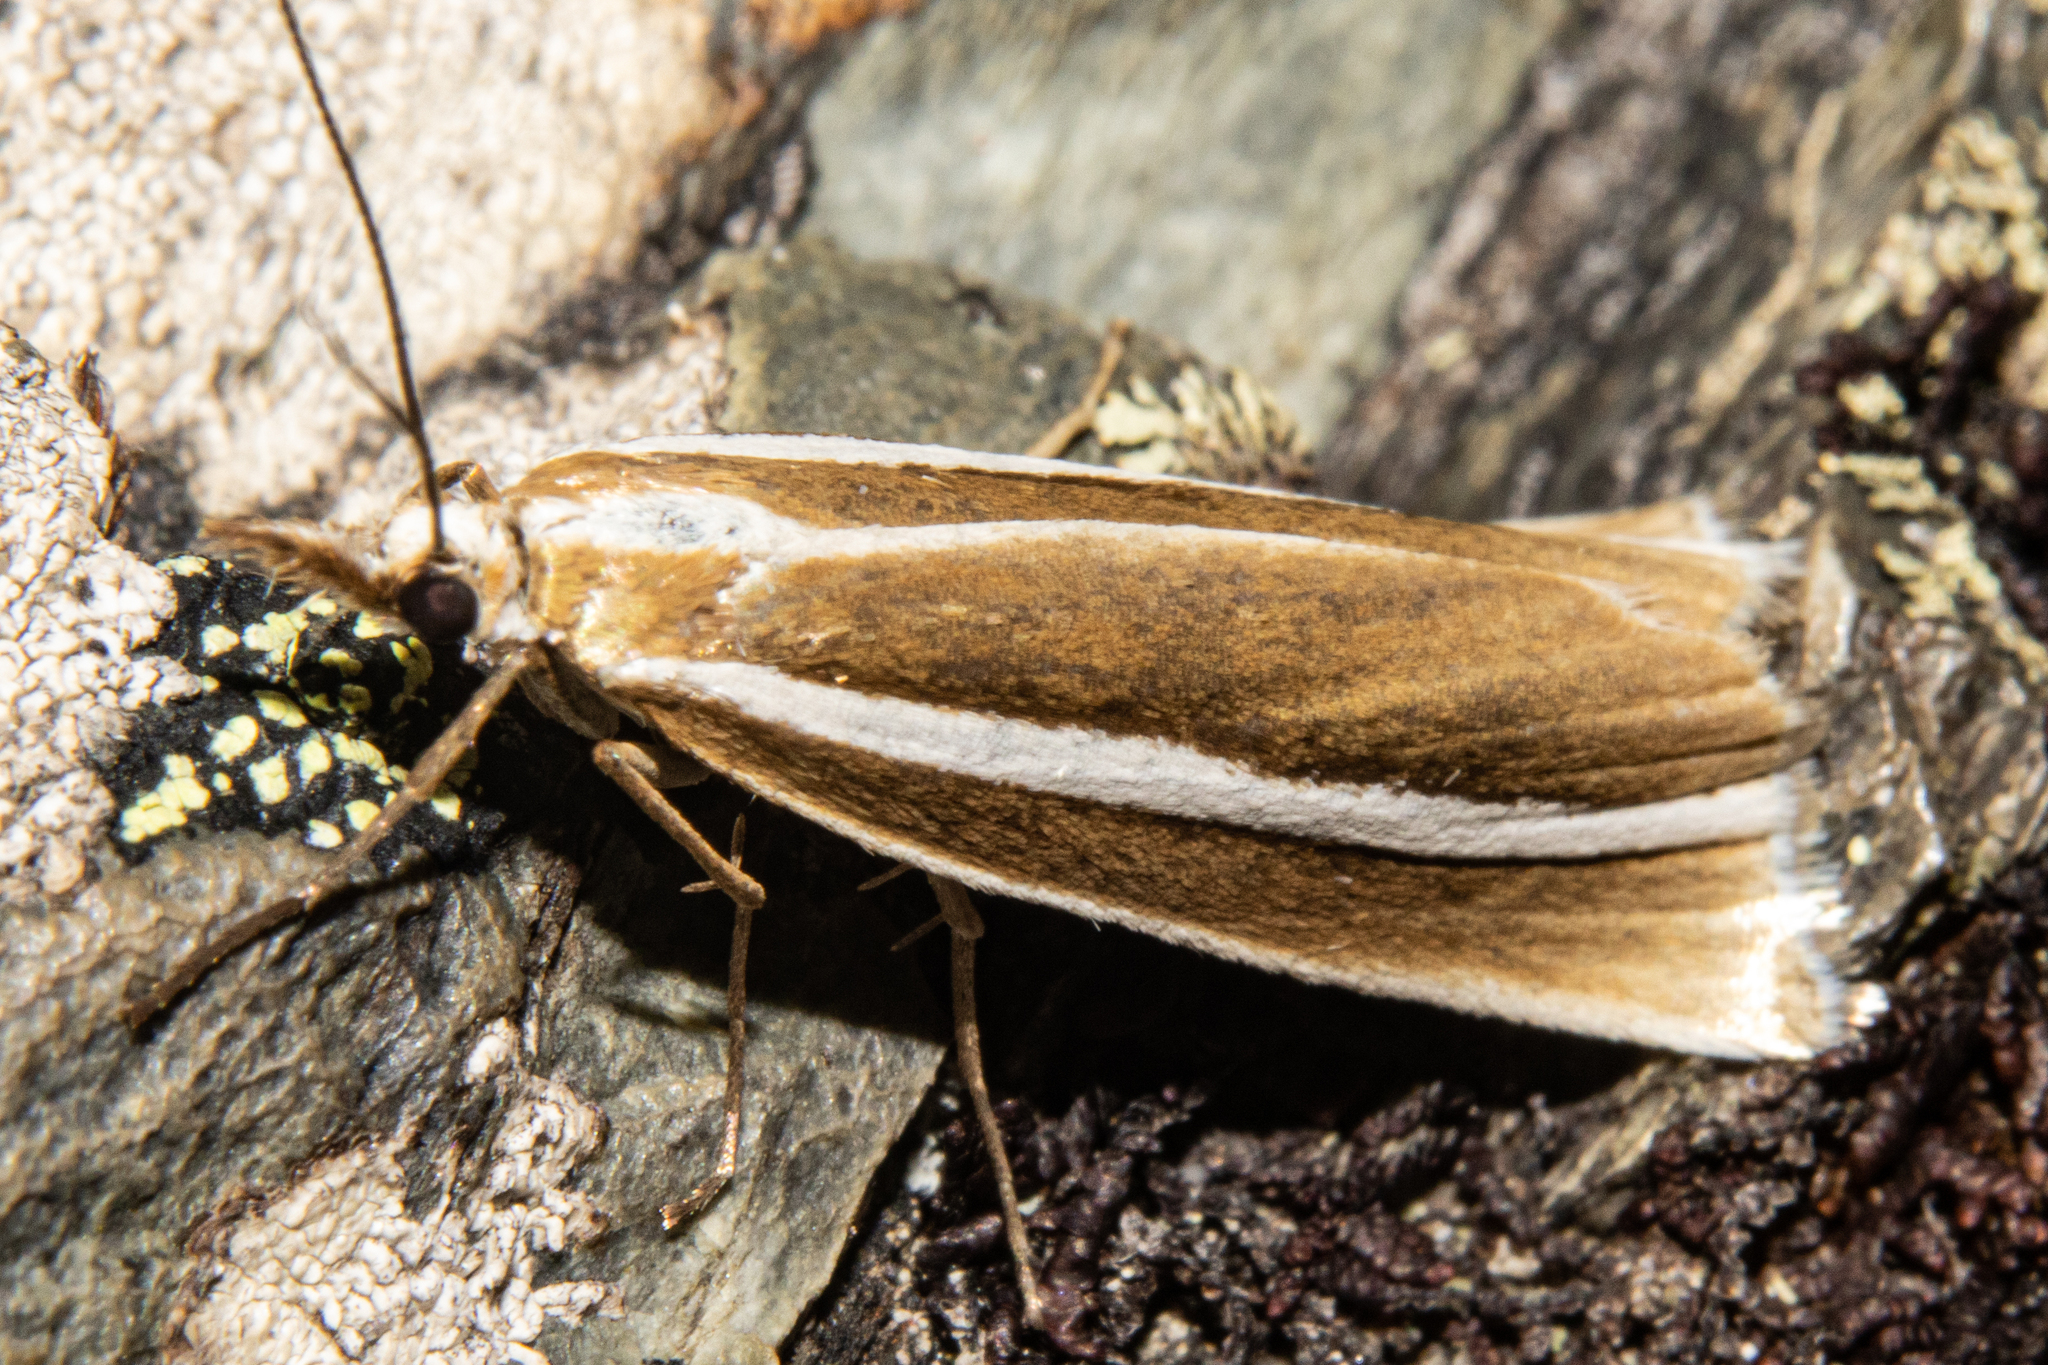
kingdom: Animalia
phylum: Arthropoda
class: Insecta
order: Lepidoptera
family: Crambidae
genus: Orocrambus
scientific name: Orocrambus philpotti
